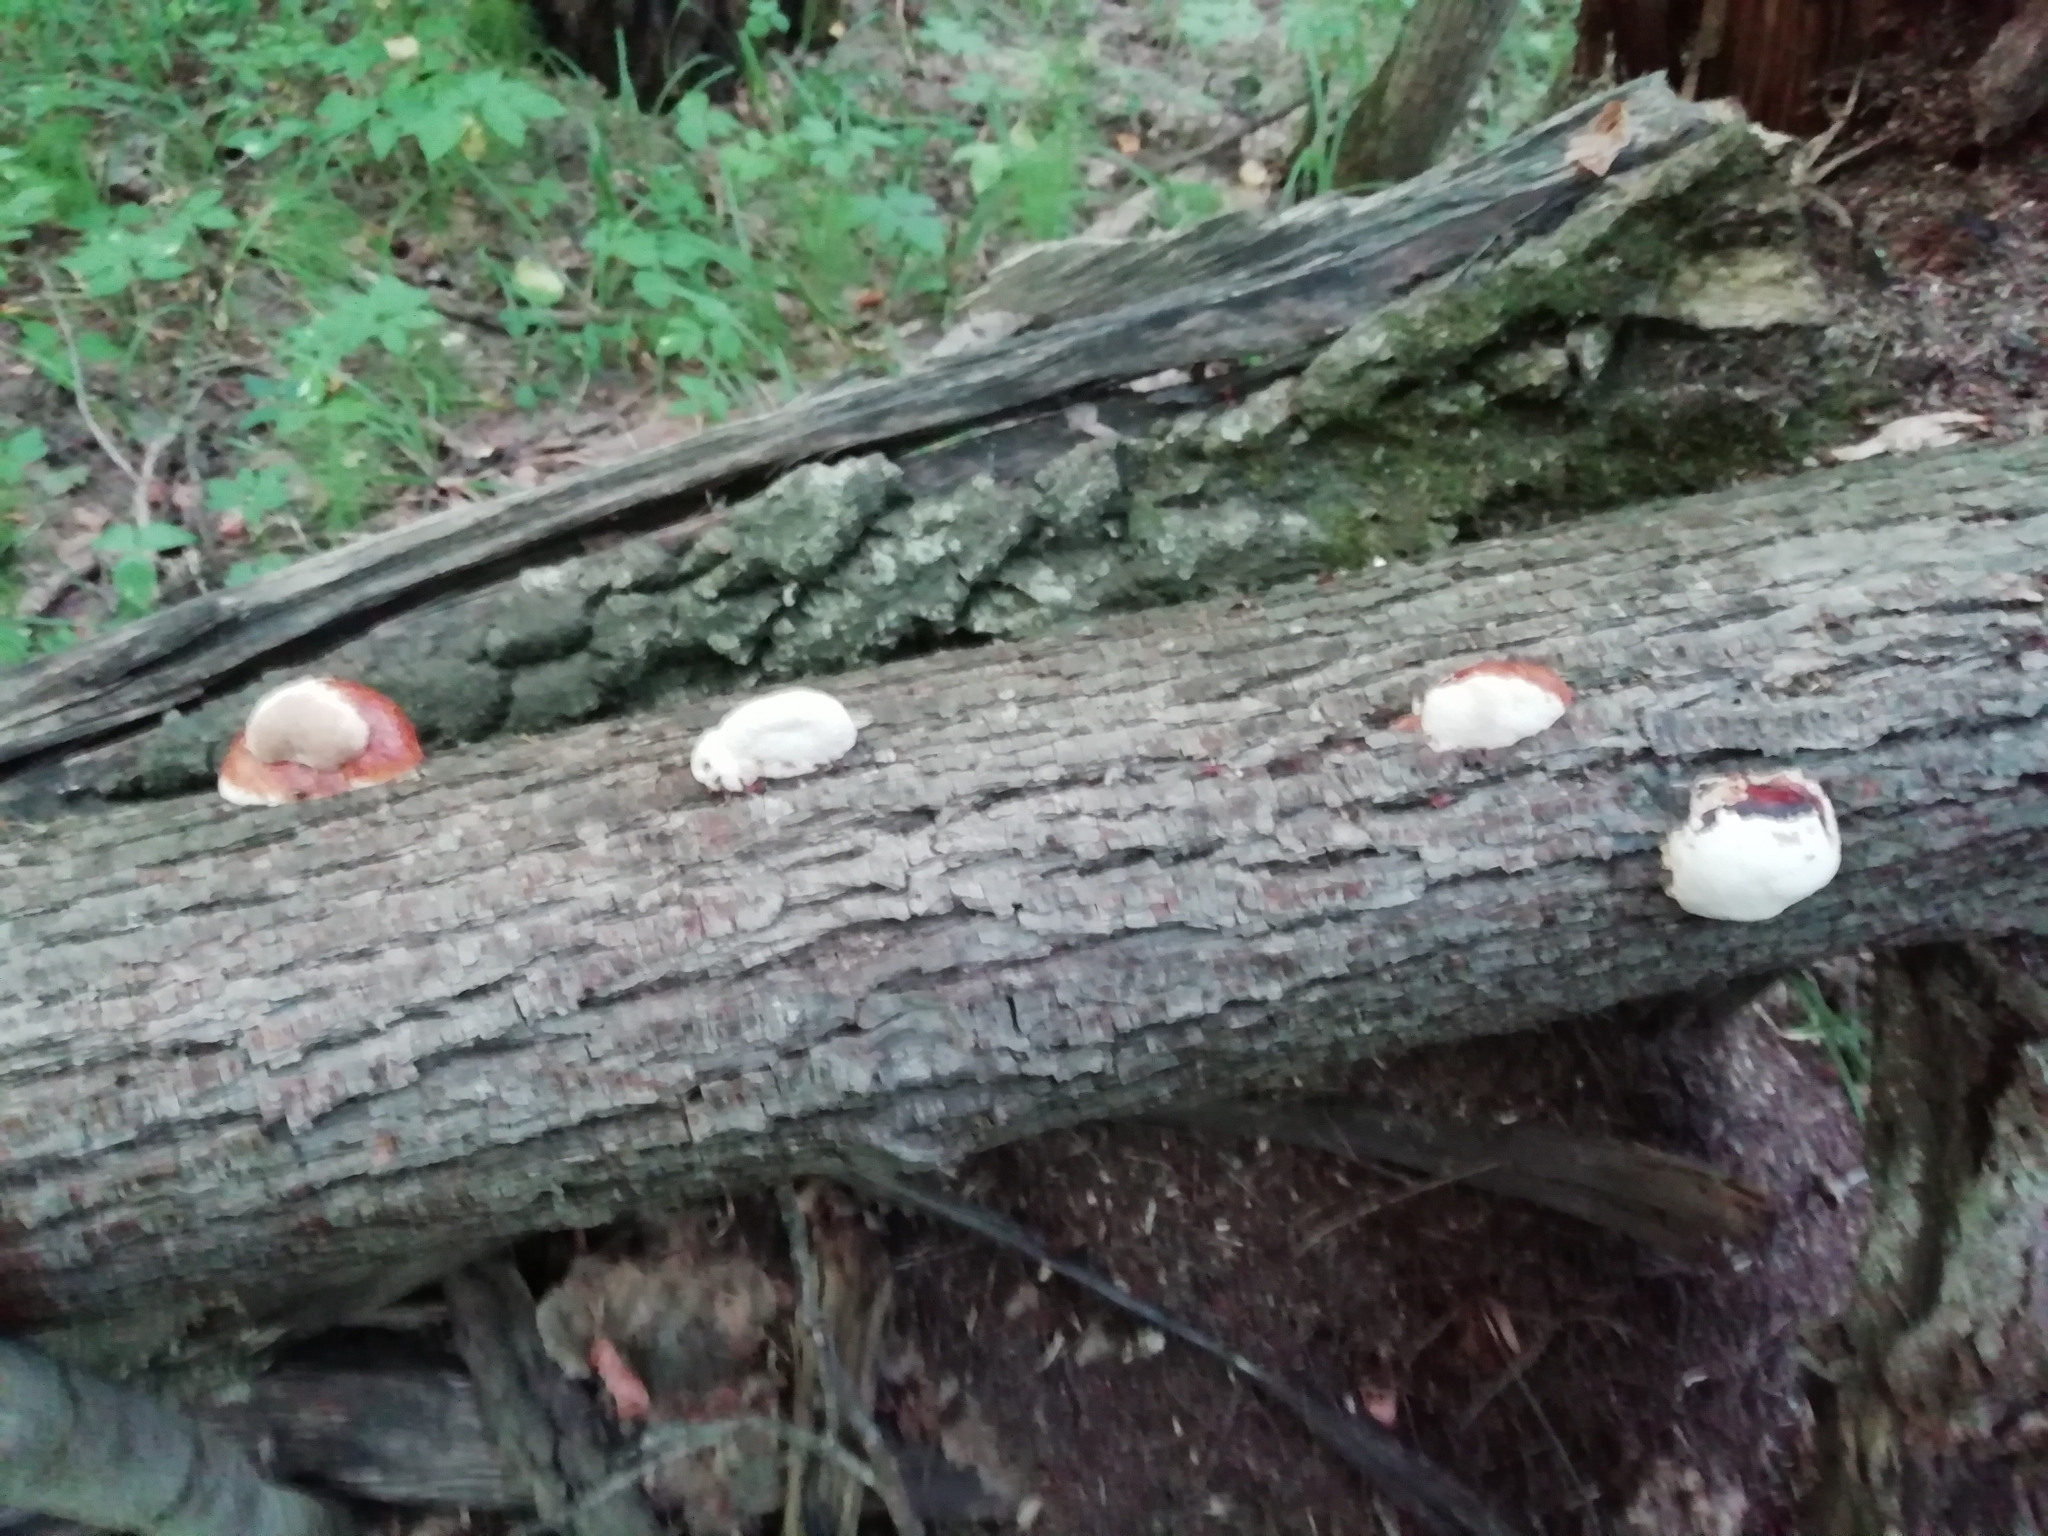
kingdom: Fungi
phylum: Basidiomycota
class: Agaricomycetes
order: Polyporales
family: Fomitopsidaceae
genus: Fomitopsis
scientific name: Fomitopsis pinicola
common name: Red-belted bracket
